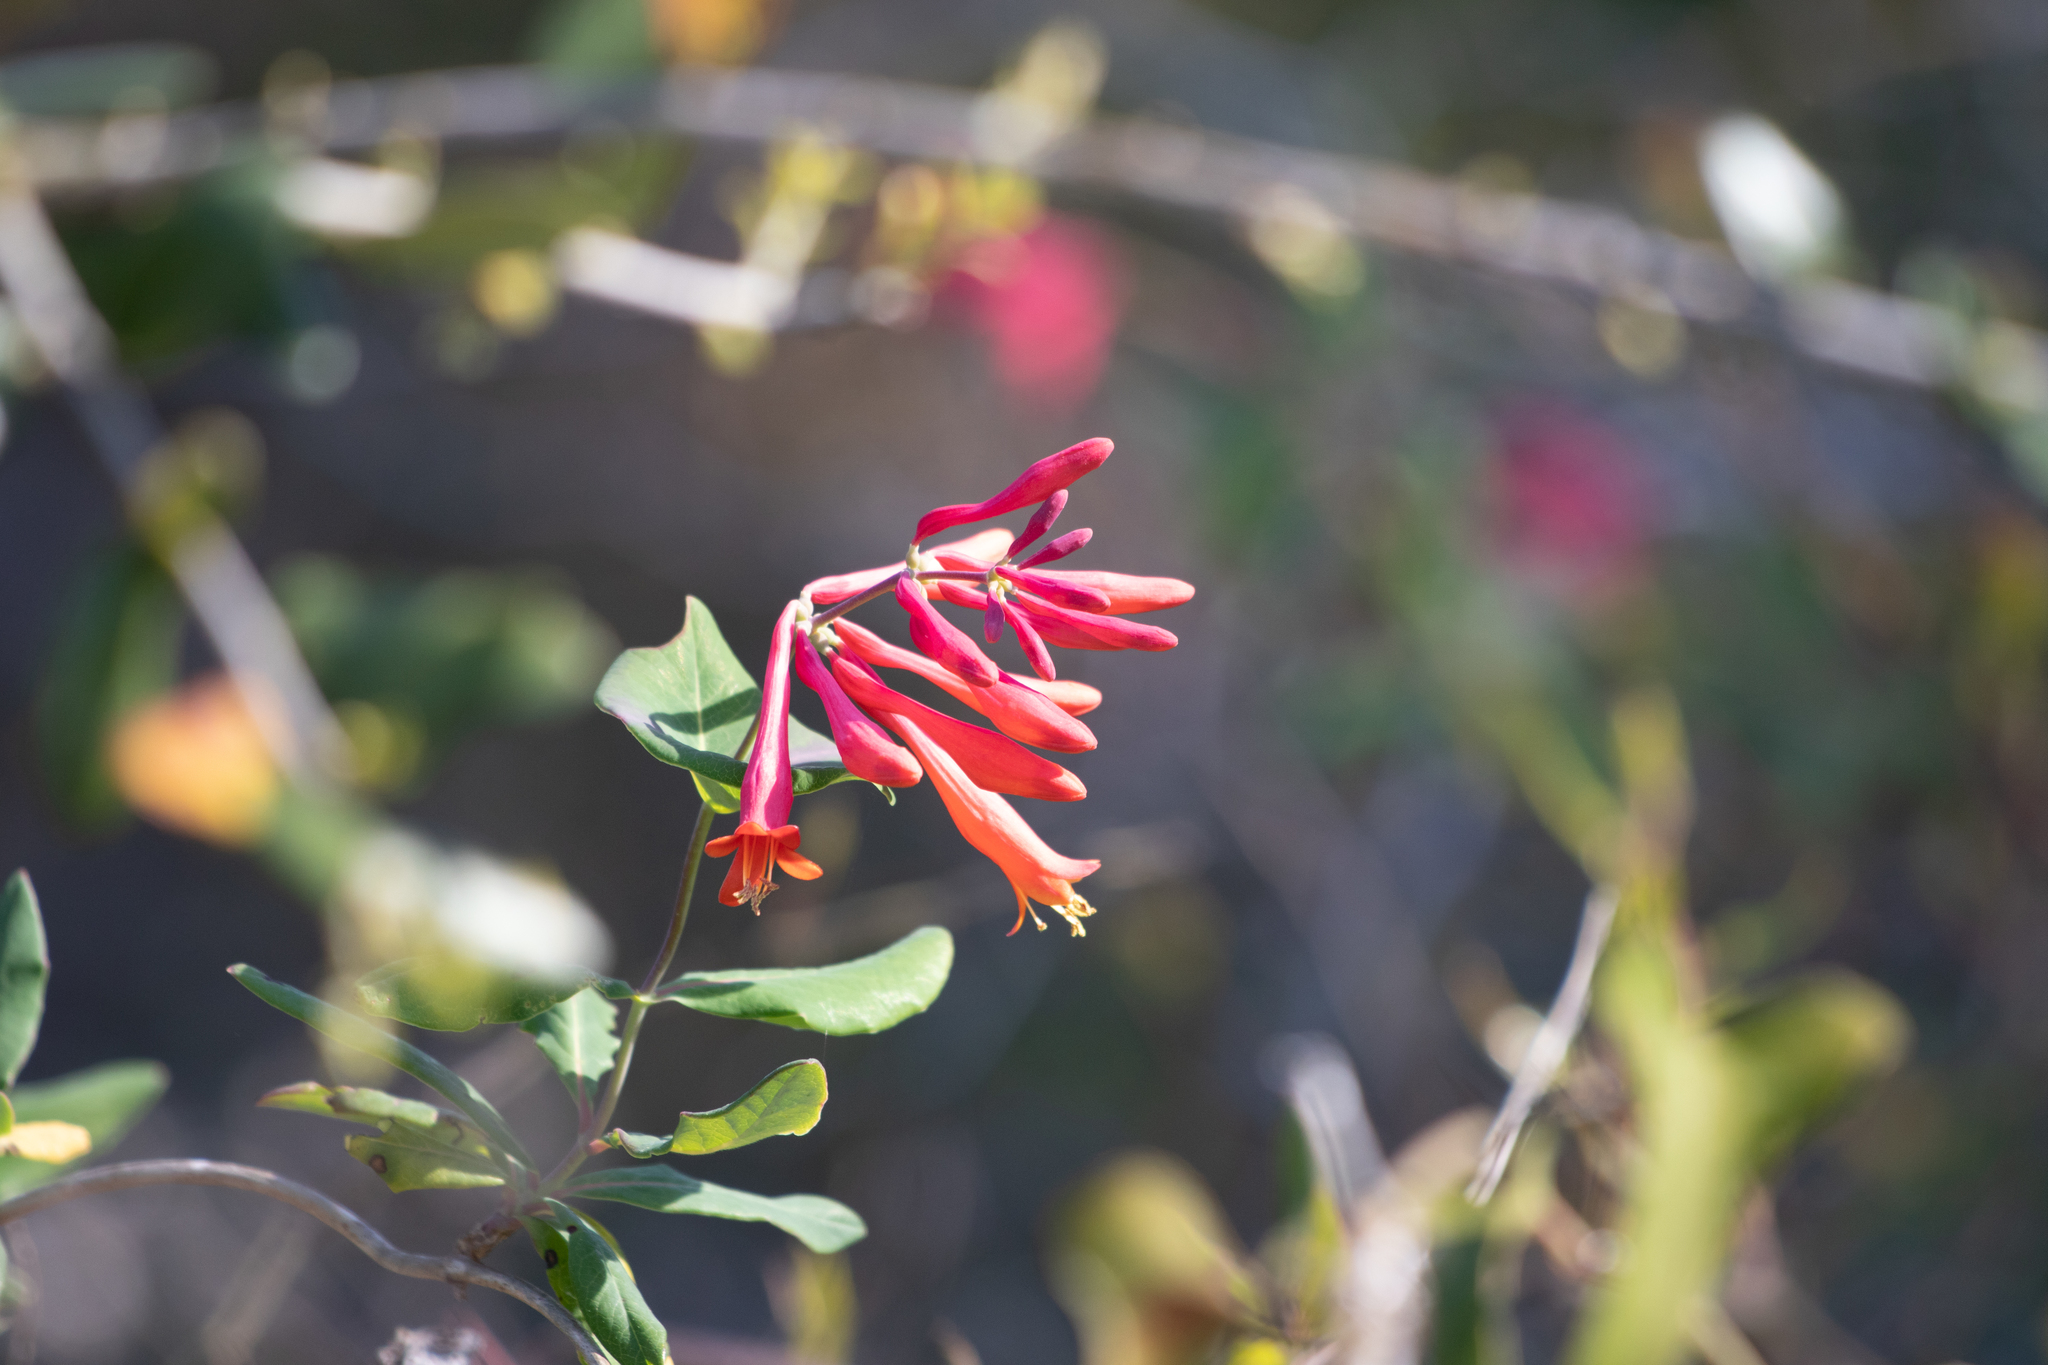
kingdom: Plantae
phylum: Tracheophyta
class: Magnoliopsida
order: Dipsacales
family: Caprifoliaceae
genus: Lonicera
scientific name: Lonicera sempervirens
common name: Coral honeysuckle
